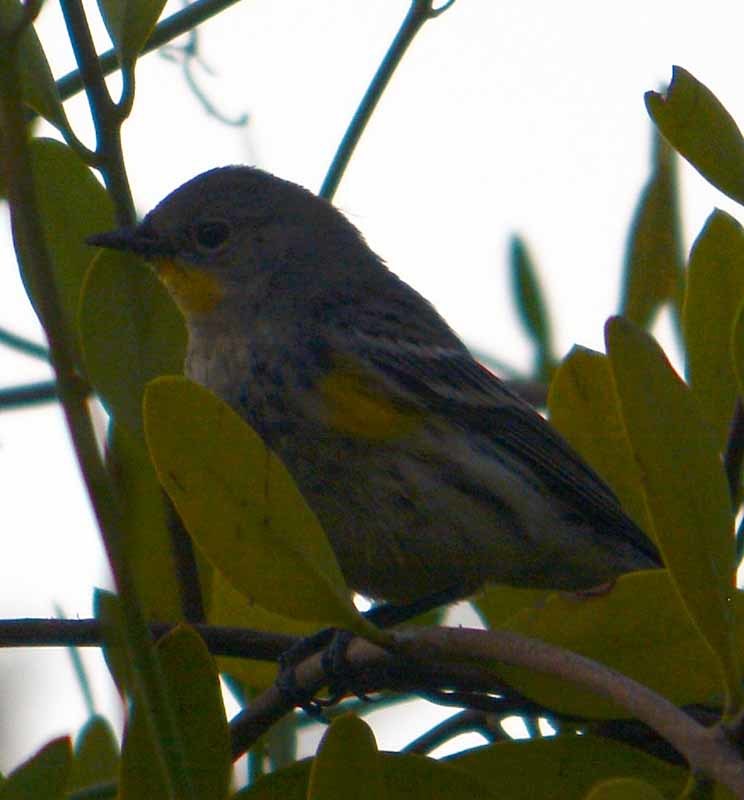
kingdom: Animalia
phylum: Chordata
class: Aves
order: Passeriformes
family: Parulidae
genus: Setophaga
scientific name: Setophaga coronata
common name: Myrtle warbler
